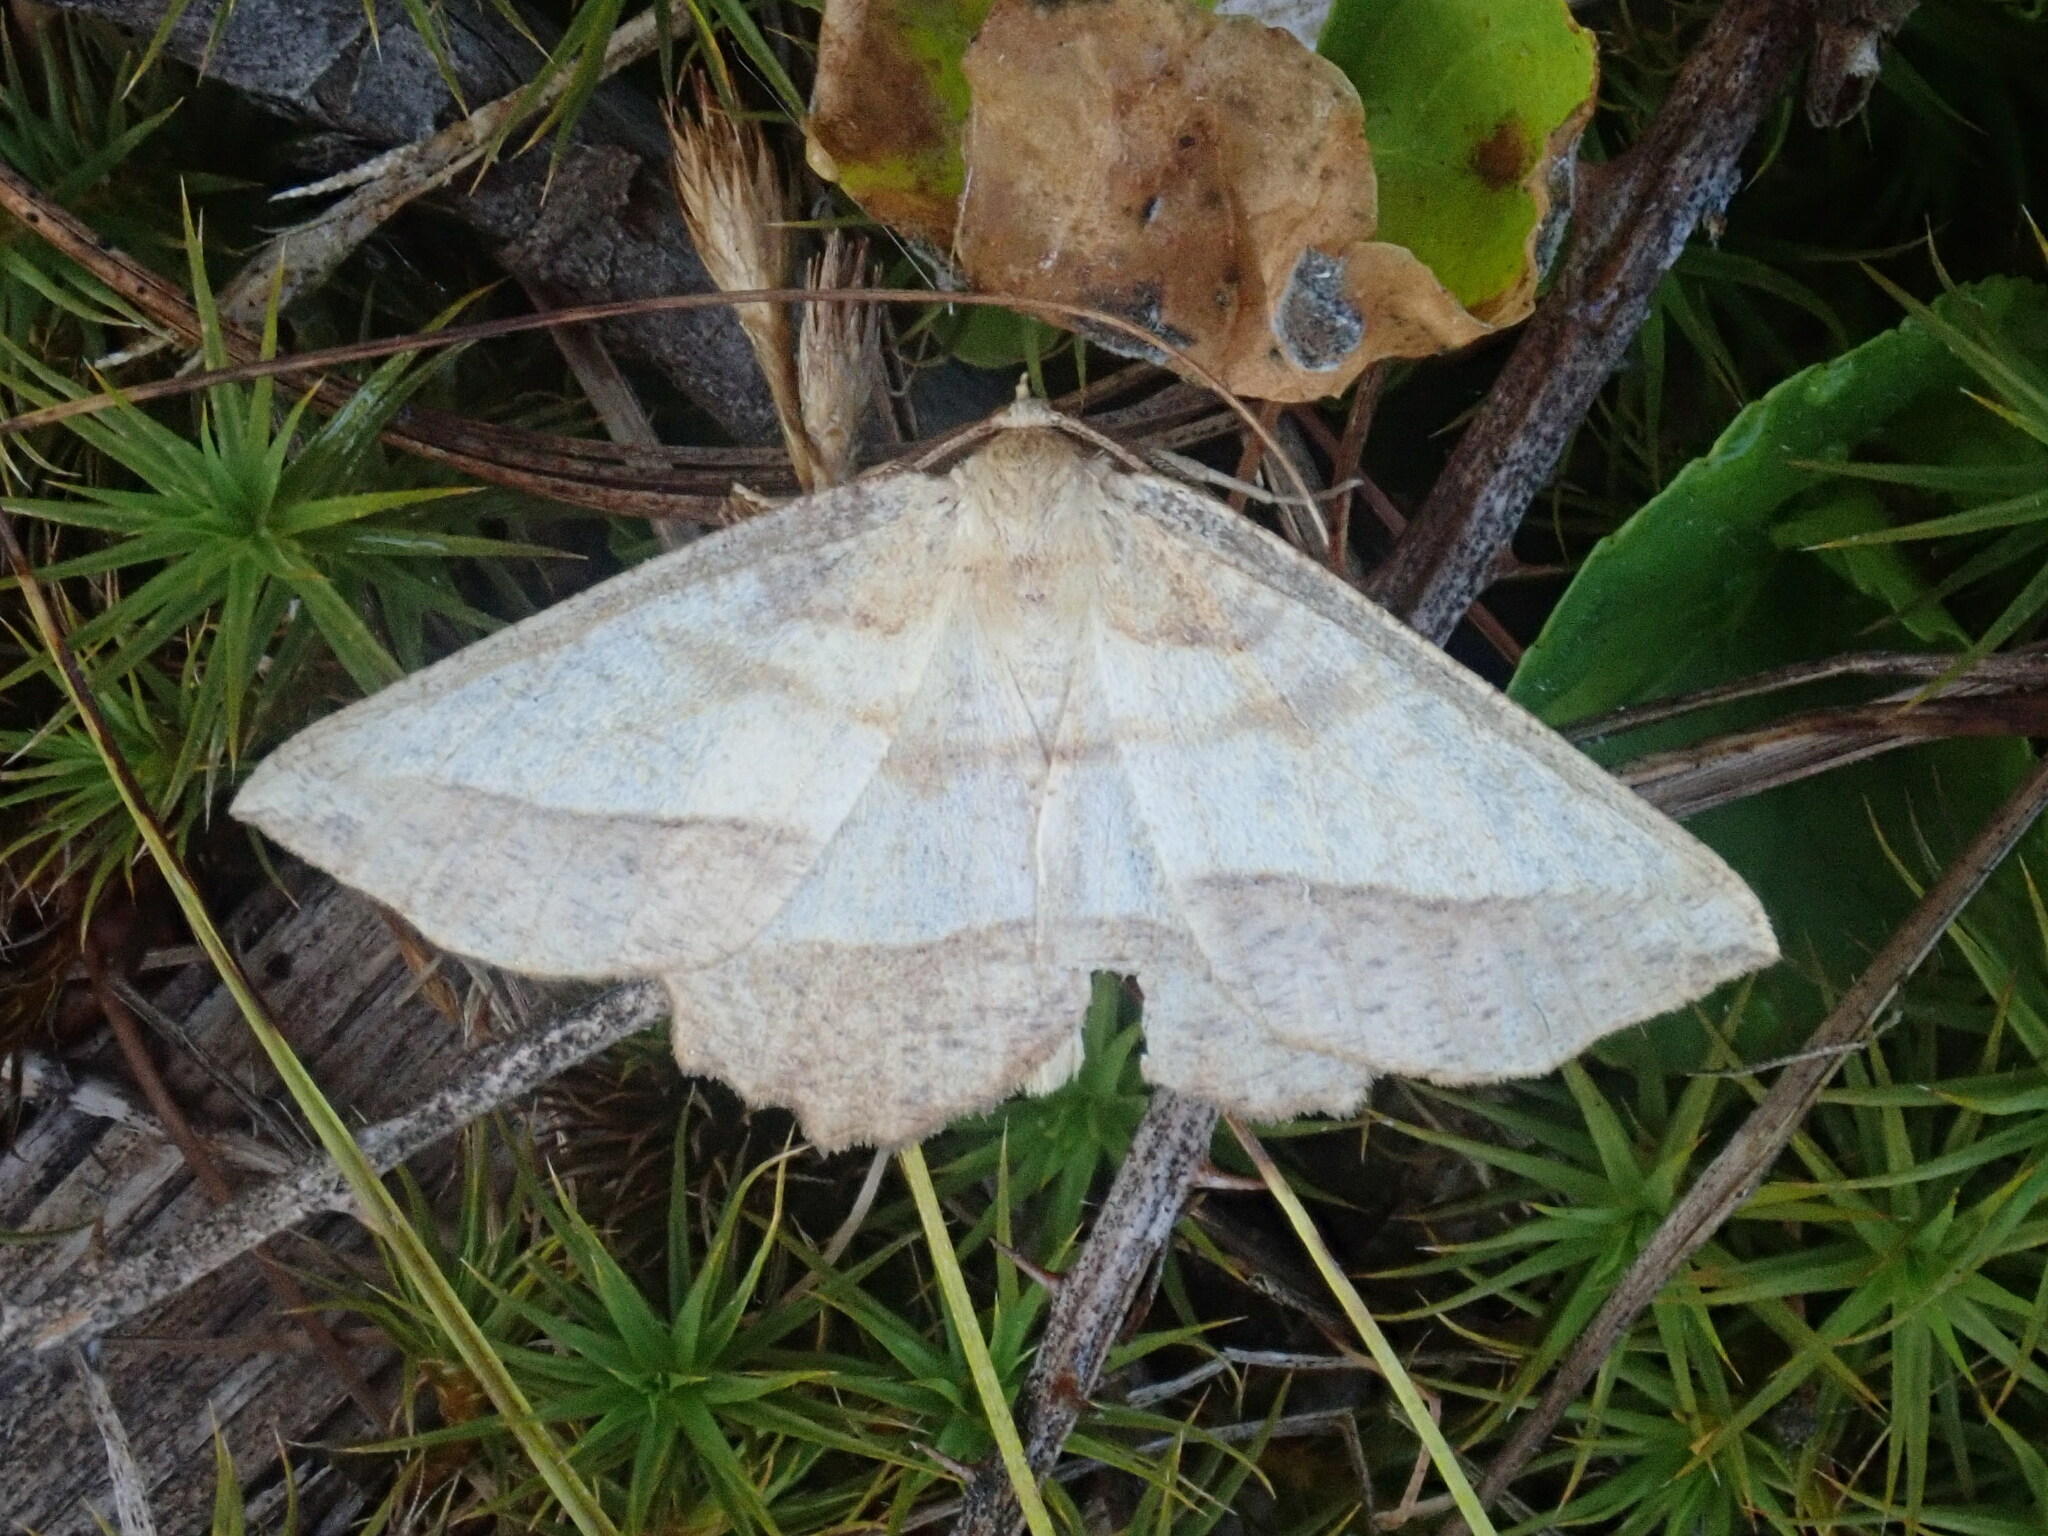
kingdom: Animalia
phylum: Arthropoda
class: Insecta
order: Lepidoptera
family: Geometridae
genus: Euchlaena
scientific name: Euchlaena serrata
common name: Saw wing
